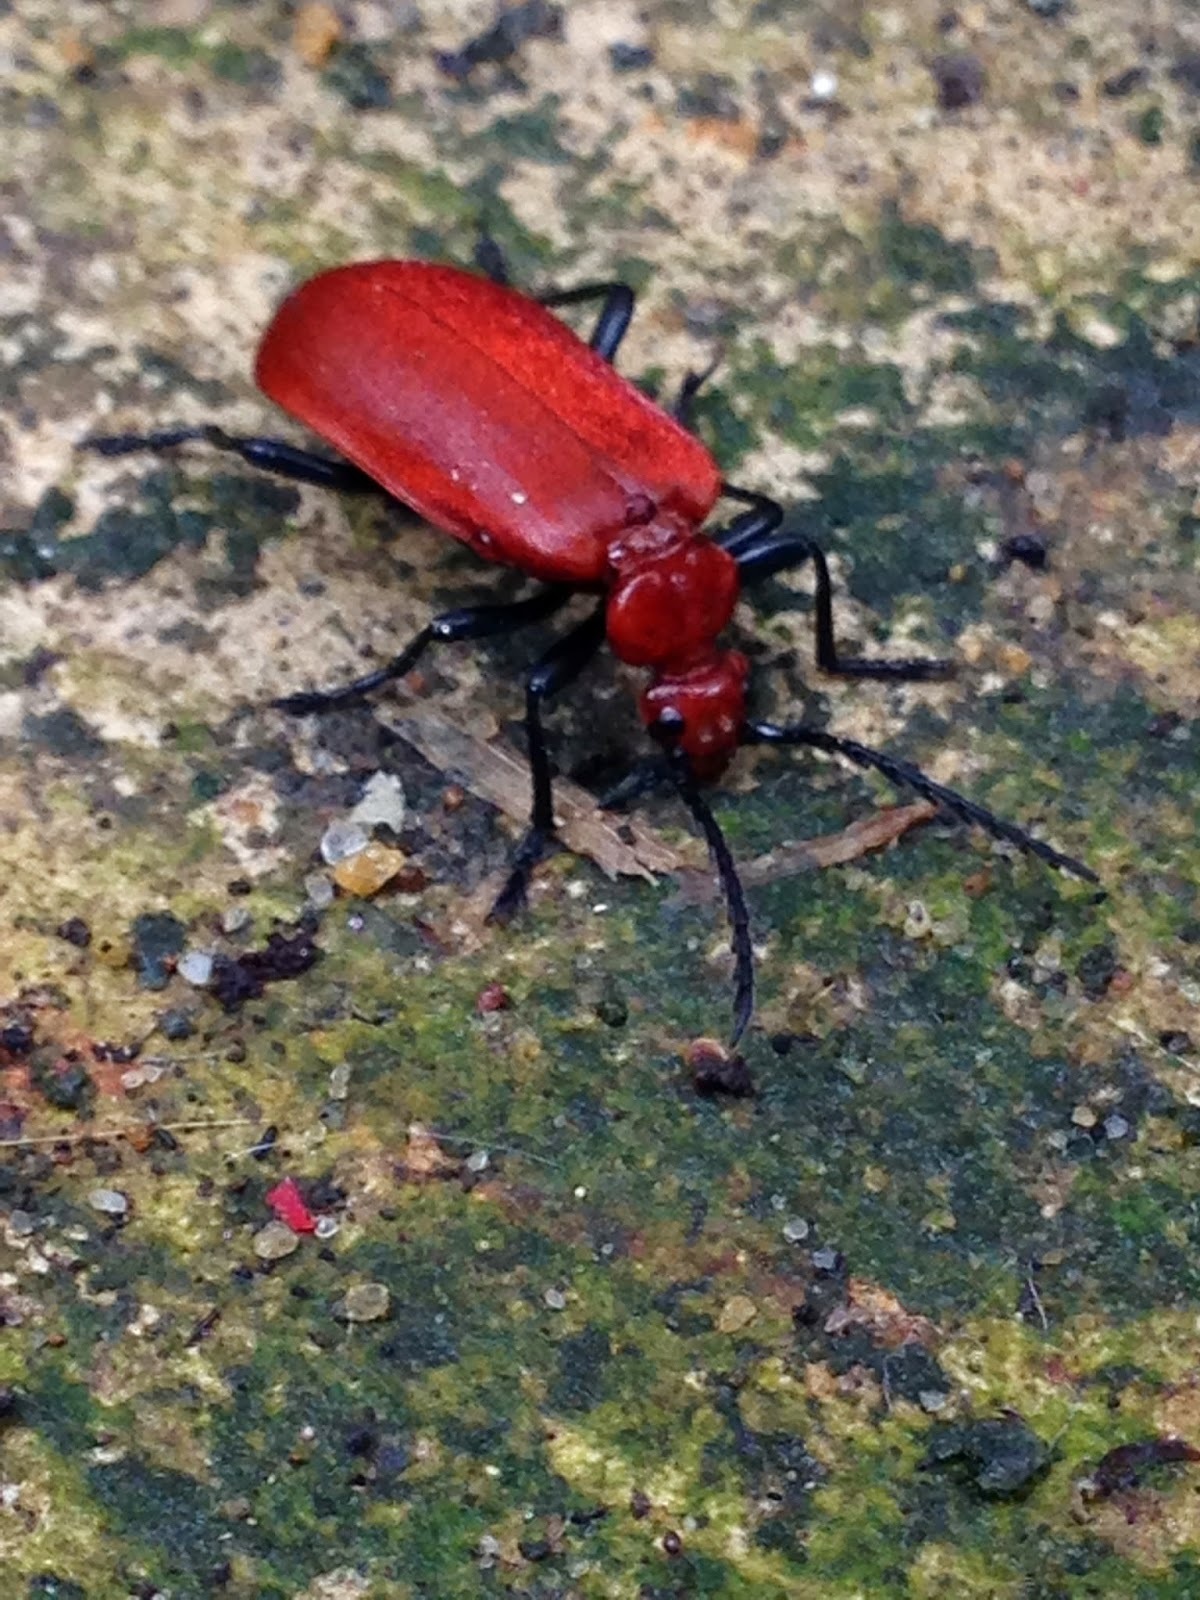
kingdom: Animalia
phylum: Arthropoda
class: Insecta
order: Coleoptera
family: Pyrochroidae
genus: Pyrochroa
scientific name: Pyrochroa serraticornis
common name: Red-headed cardinal beetle
